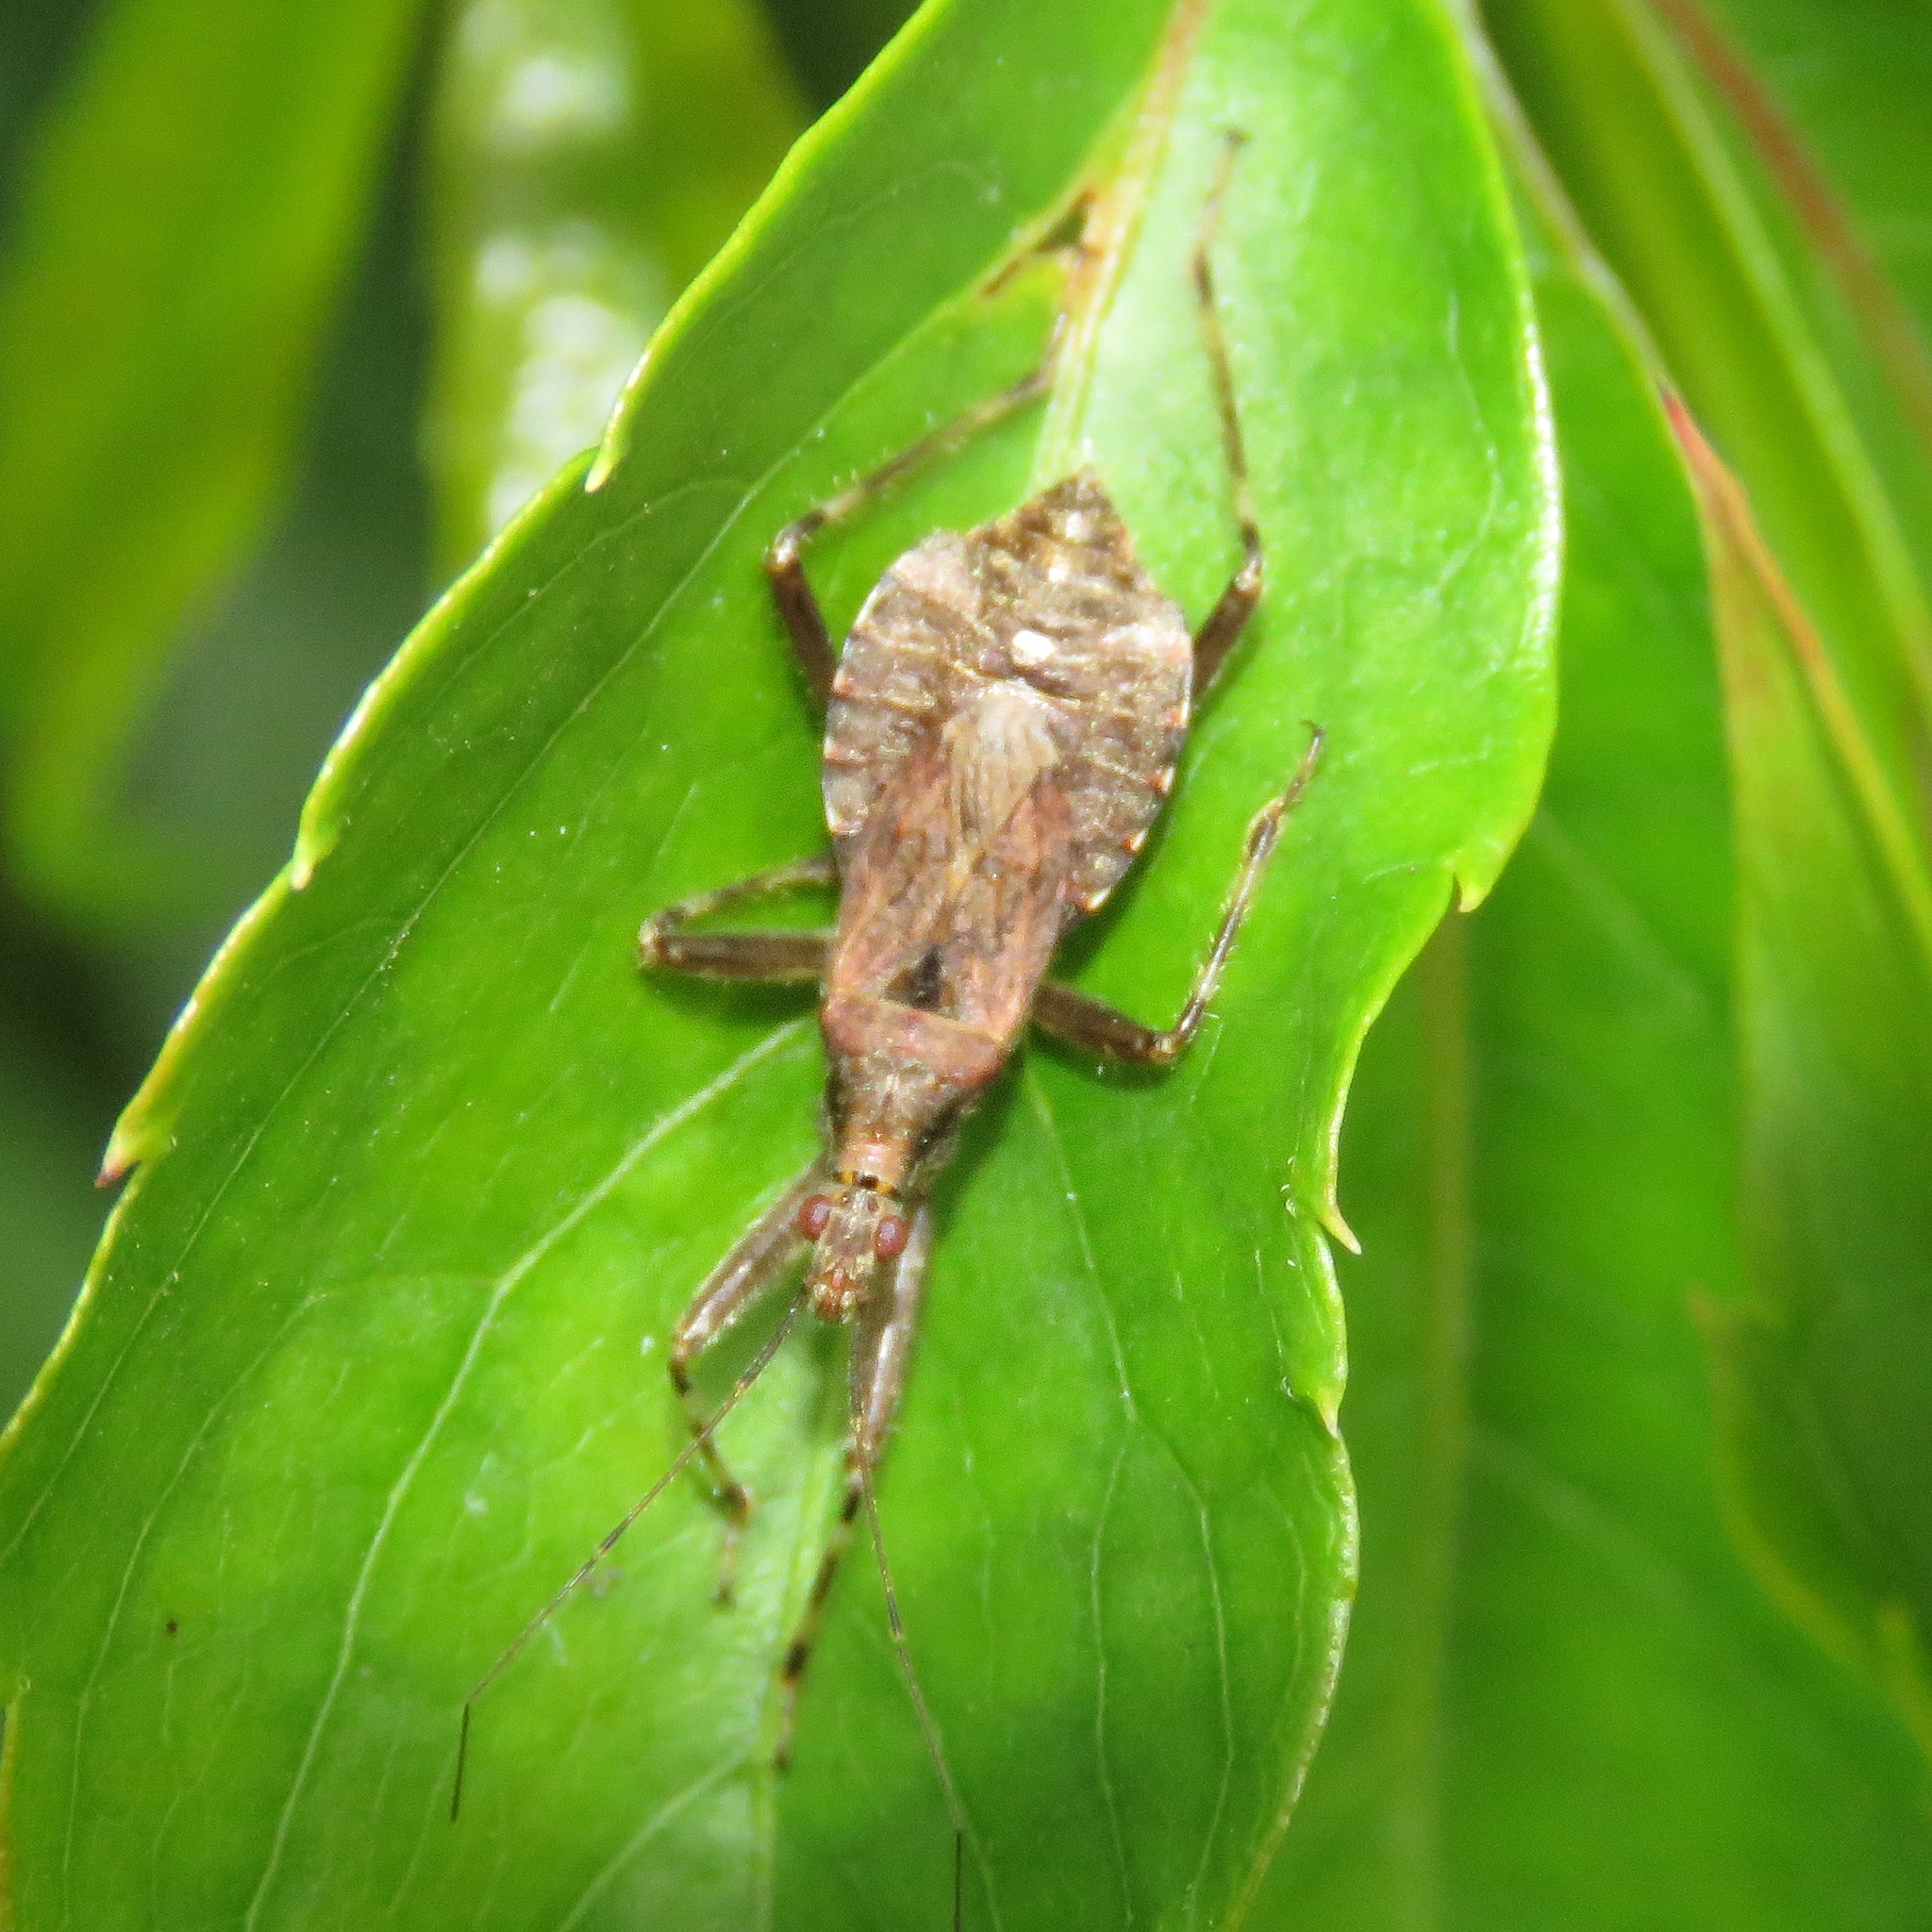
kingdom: Animalia
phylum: Arthropoda
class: Insecta
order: Hemiptera
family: Nabidae
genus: Himacerus
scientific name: Himacerus apterus
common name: Tree damsel bug
